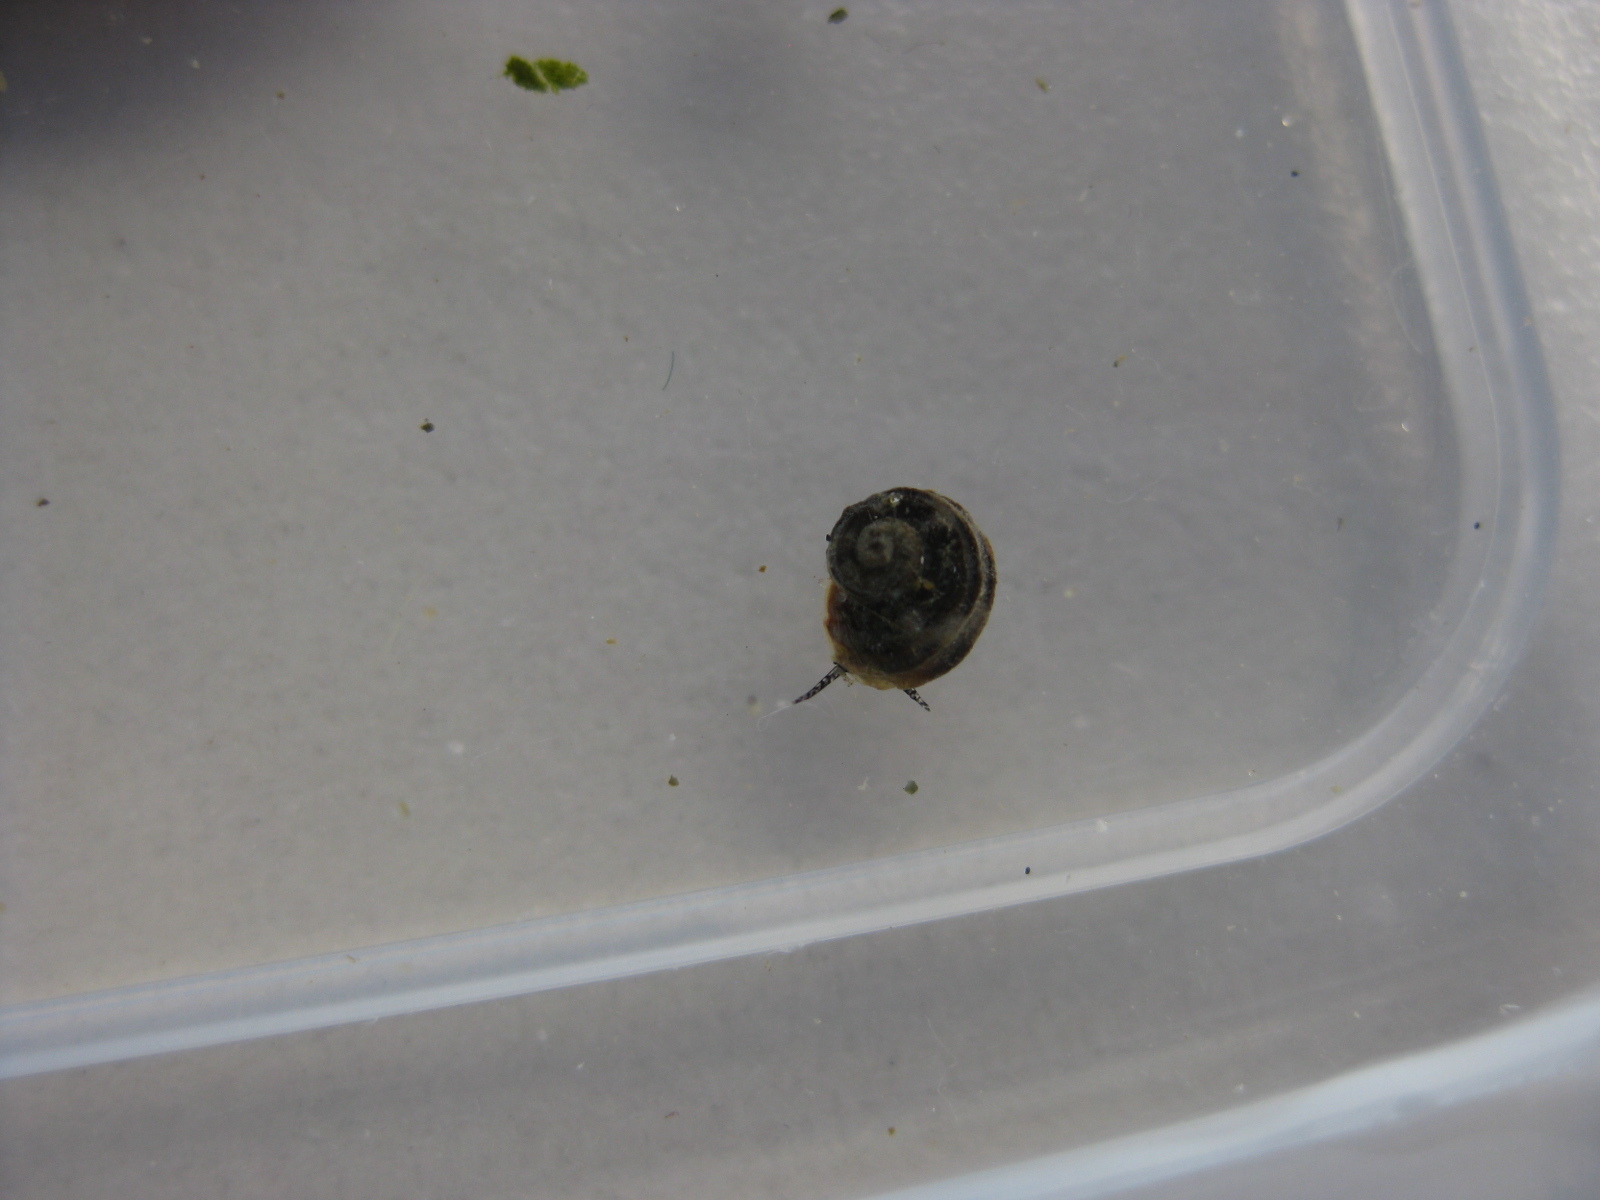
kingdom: Animalia
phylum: Mollusca
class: Gastropoda
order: Littorinimorpha
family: Littorinidae
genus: Risellopsis
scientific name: Risellopsis varia
